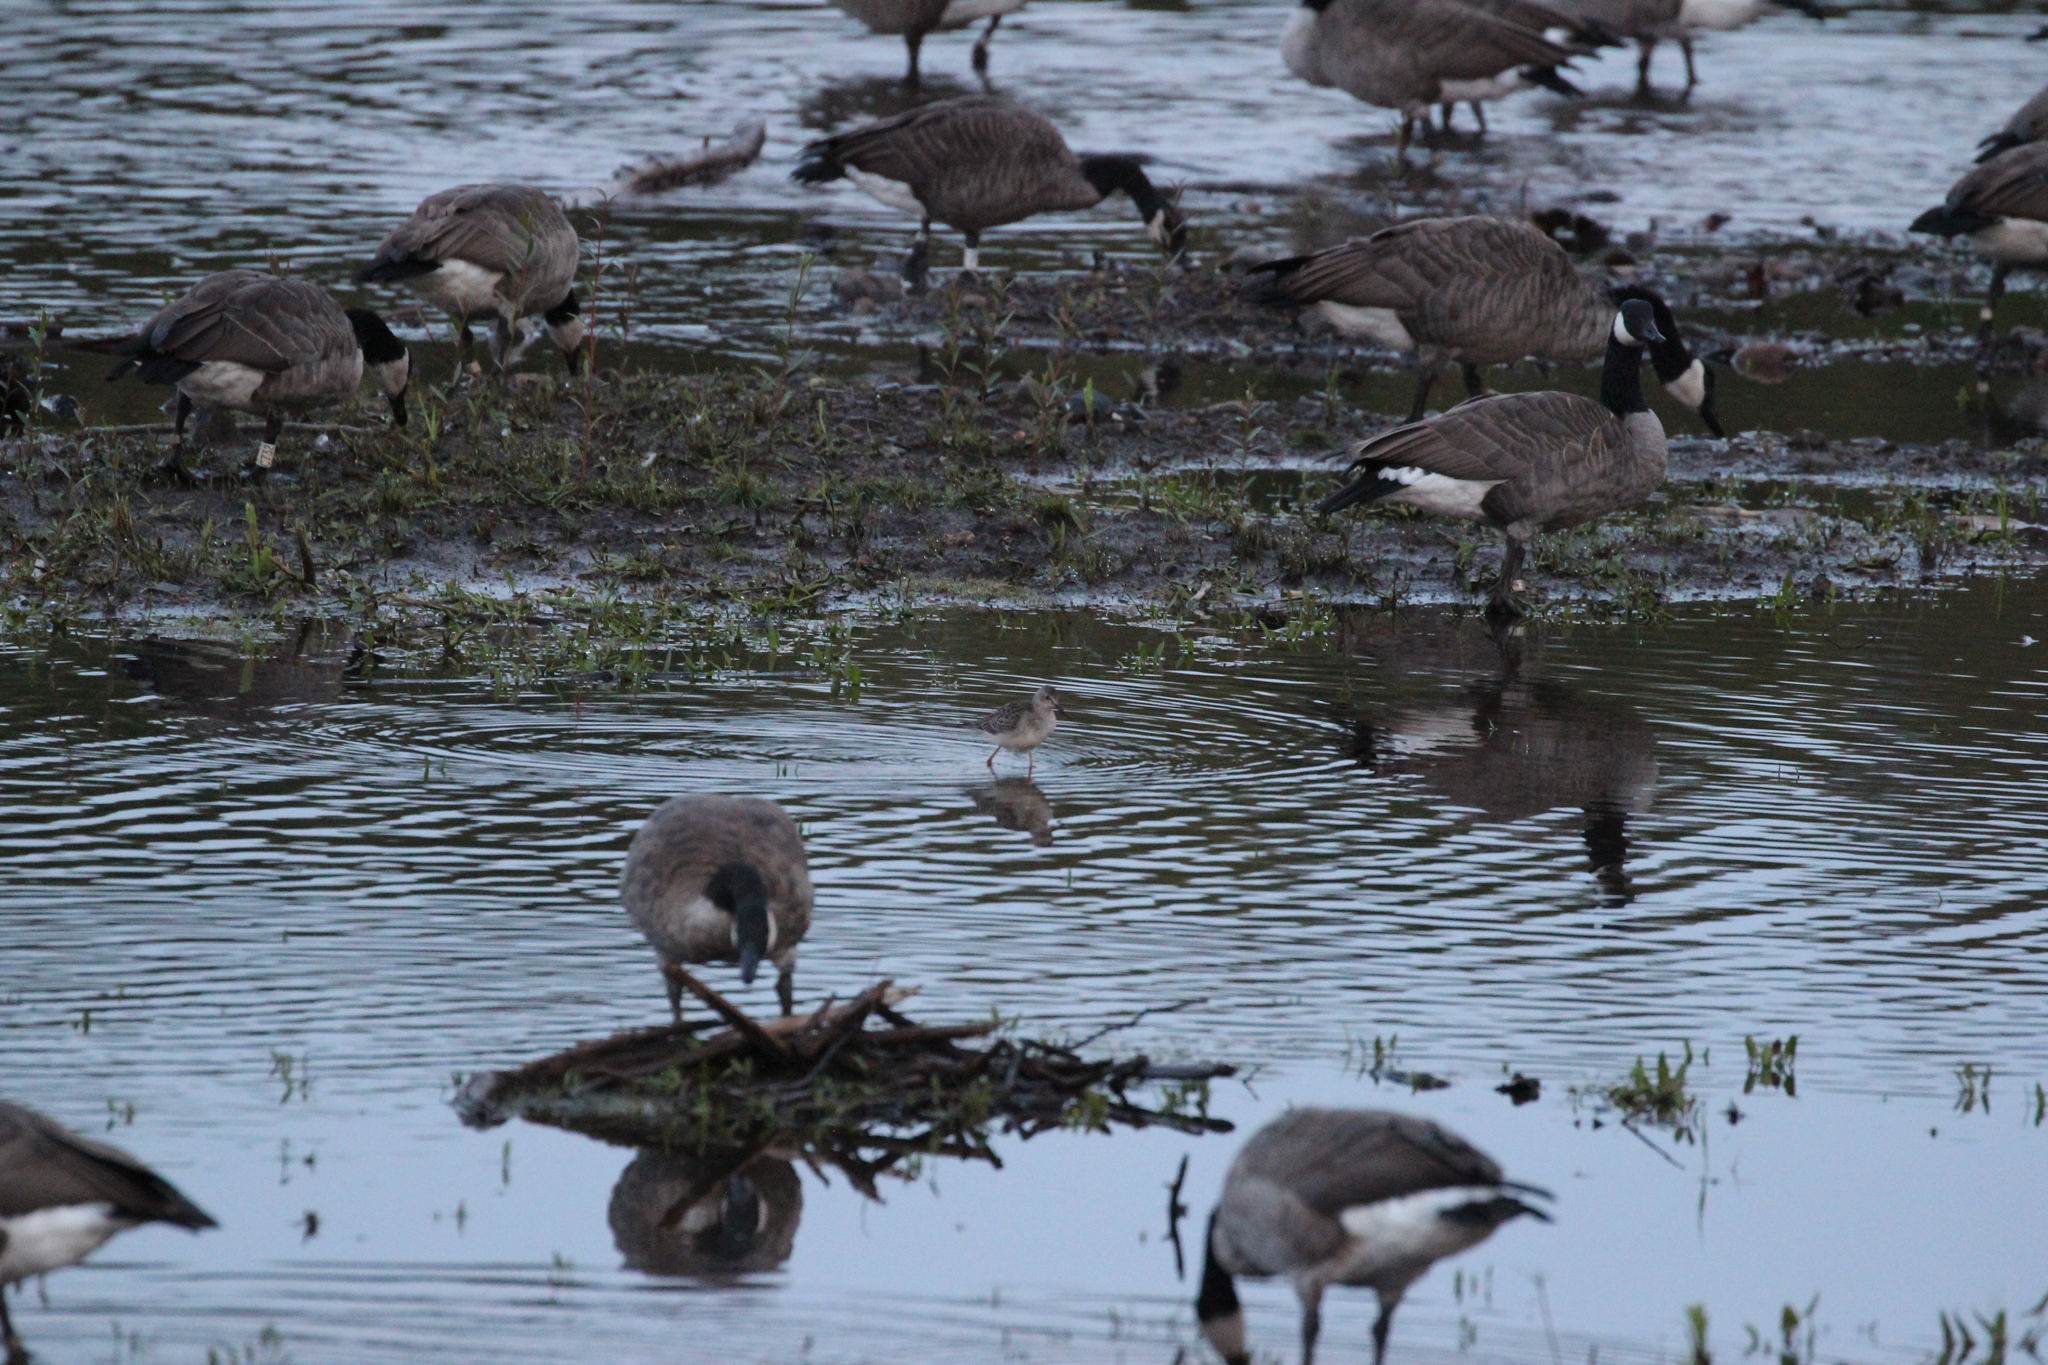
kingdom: Animalia
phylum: Chordata
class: Aves
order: Anseriformes
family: Anatidae
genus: Branta
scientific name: Branta canadensis
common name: Canada goose
